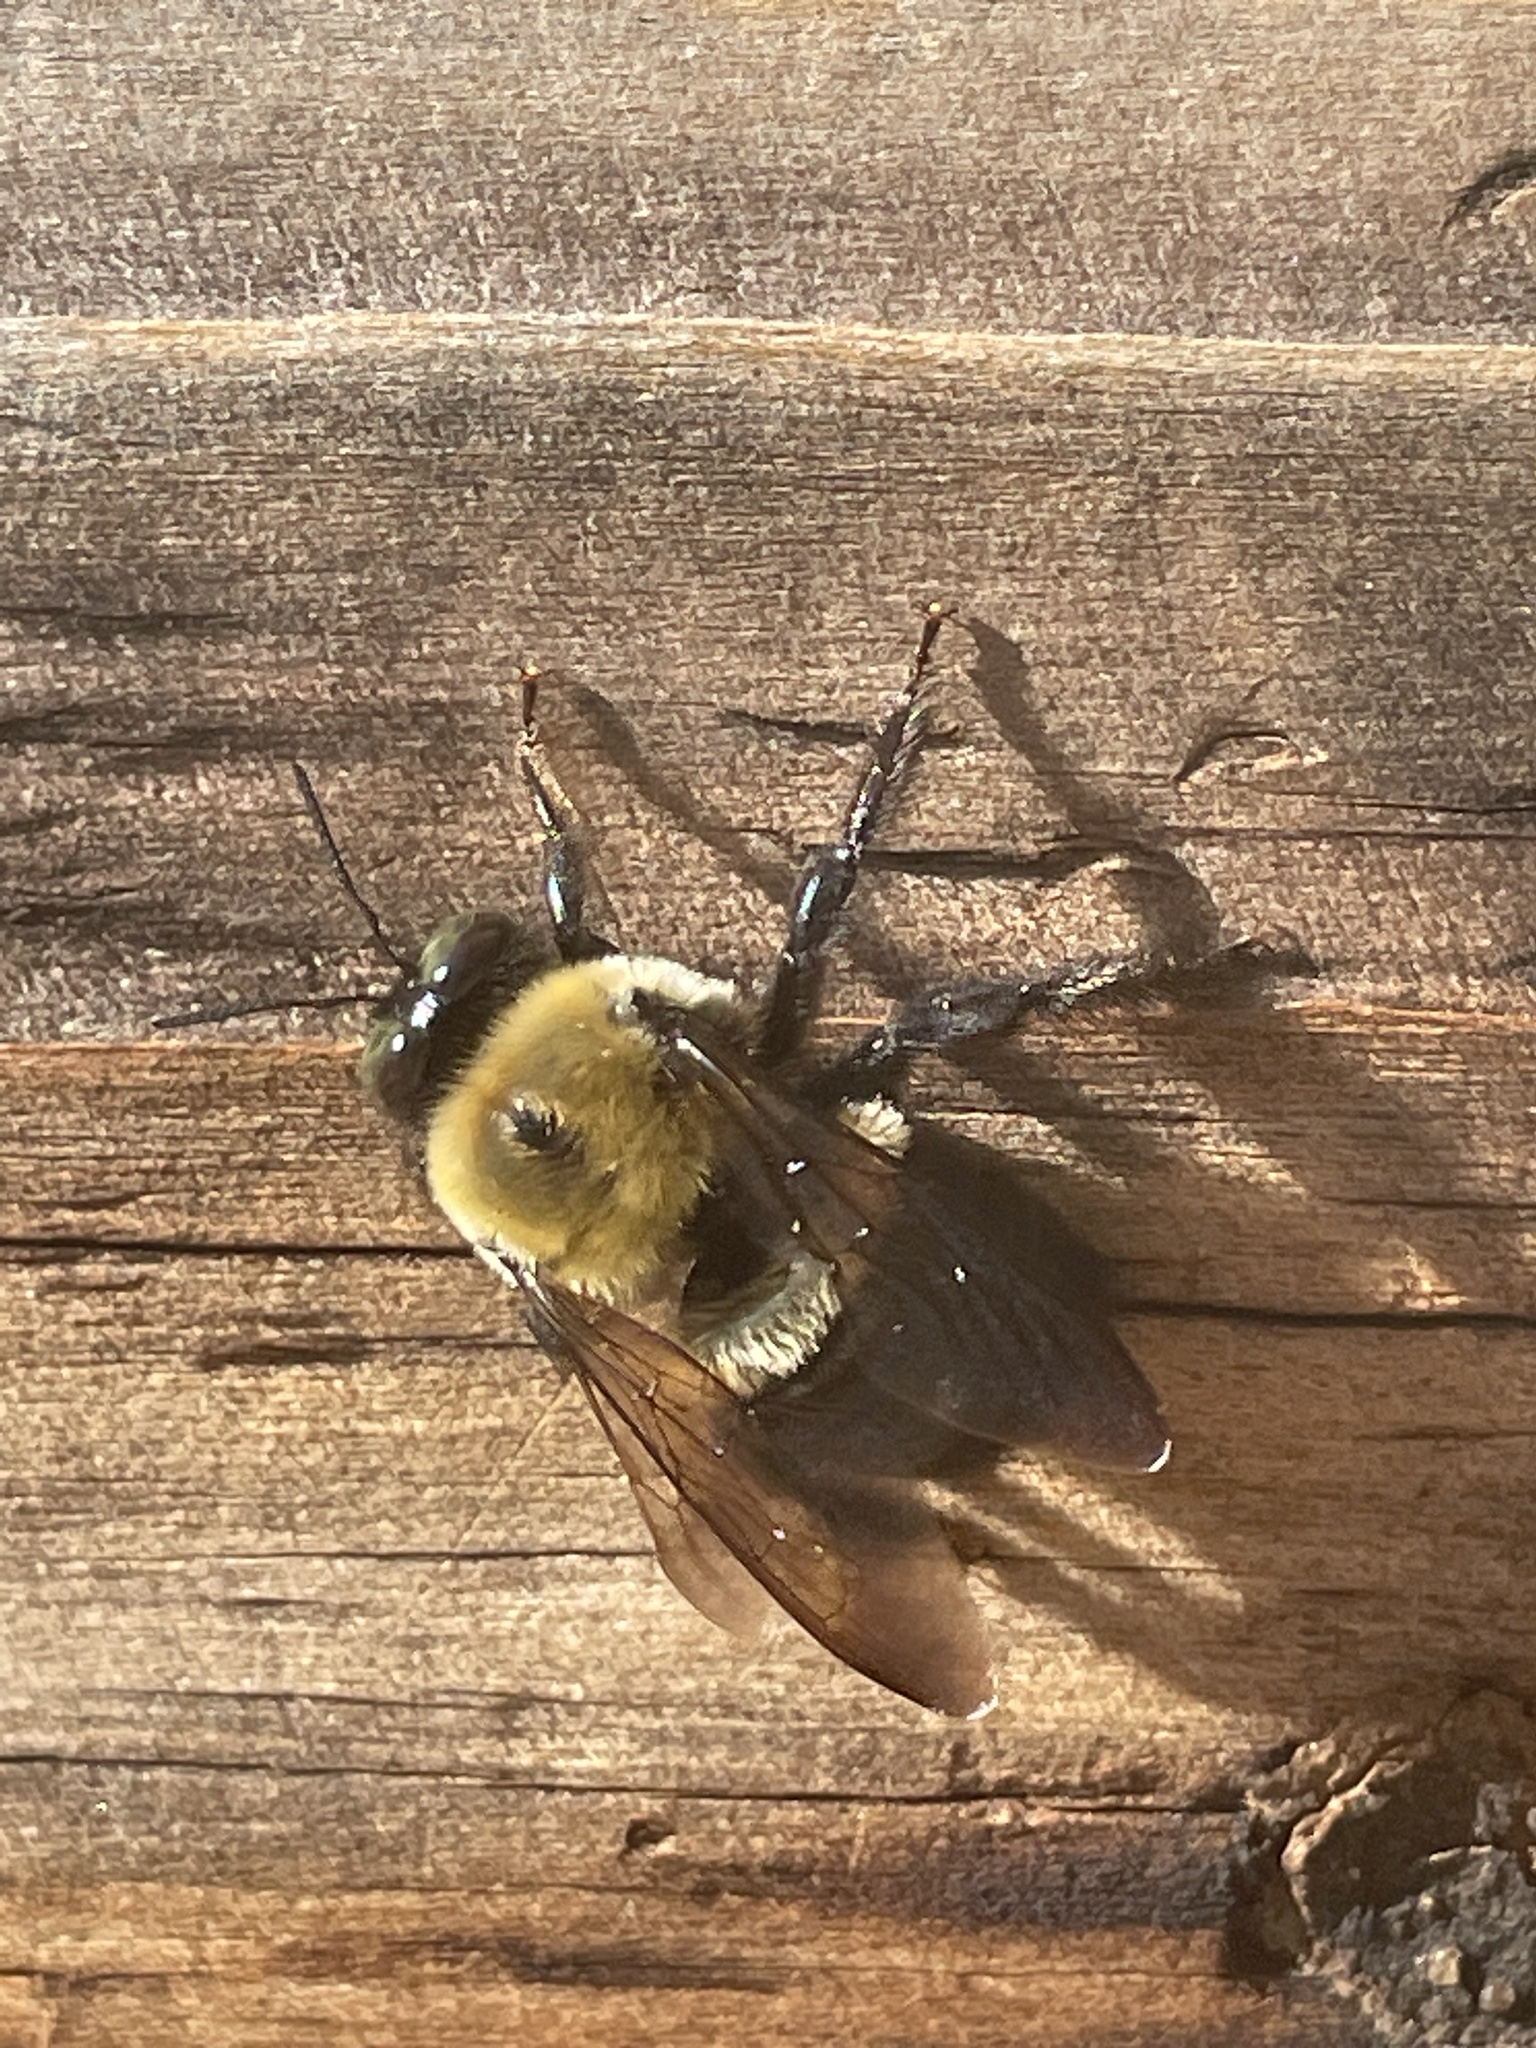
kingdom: Animalia
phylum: Arthropoda
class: Insecta
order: Hymenoptera
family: Apidae
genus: Xylocopa
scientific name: Xylocopa virginica
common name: Carpenter bee
